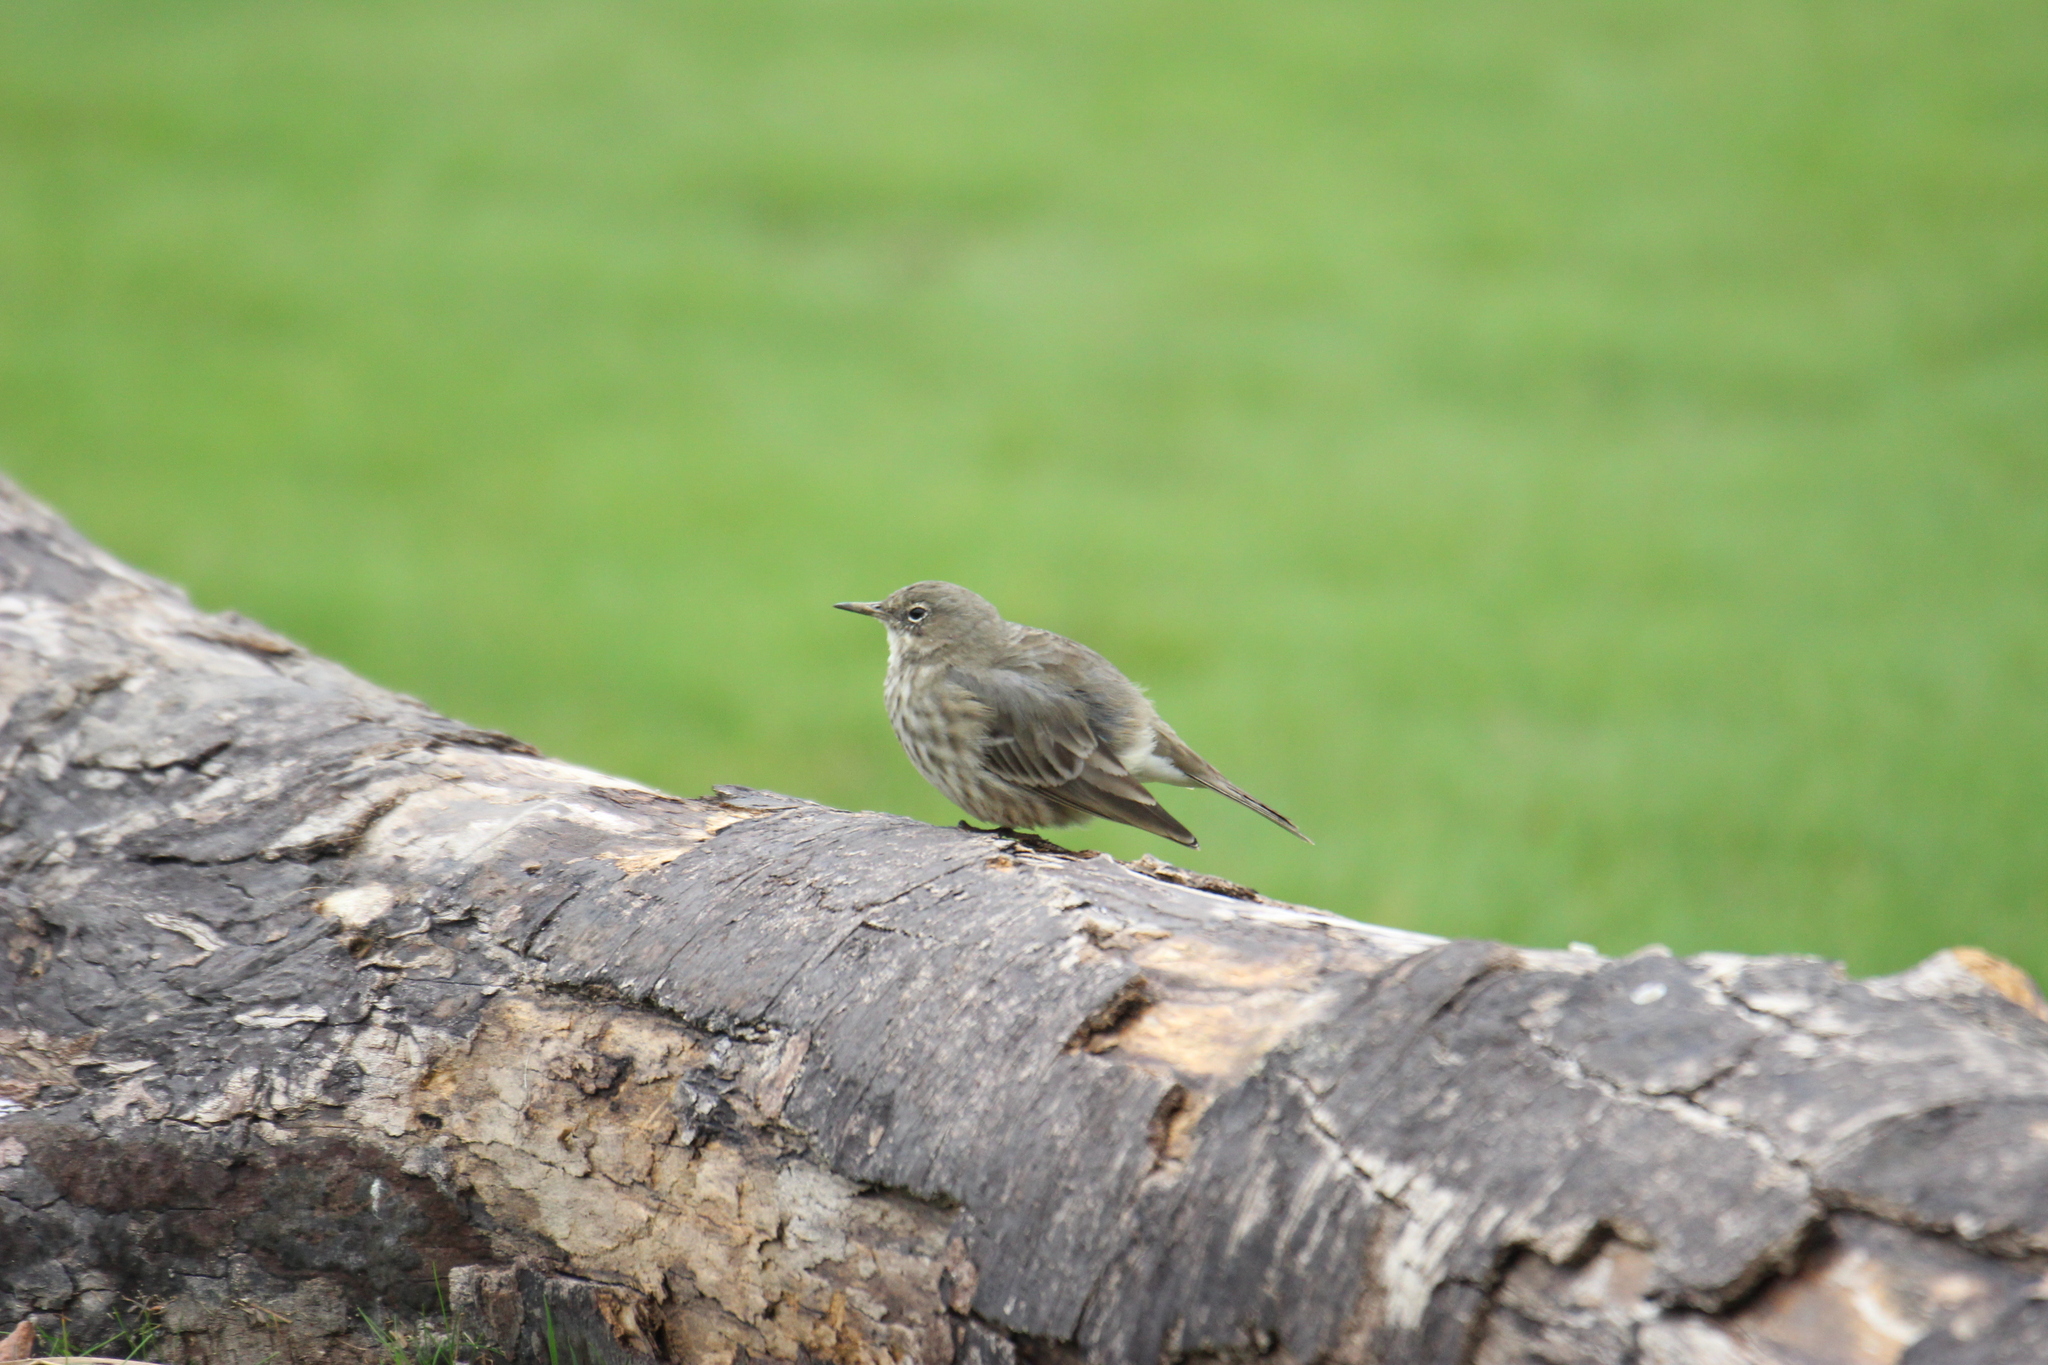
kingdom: Animalia
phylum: Chordata
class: Aves
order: Passeriformes
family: Motacillidae
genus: Anthus
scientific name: Anthus petrosus
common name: Eurasian rock pipit
